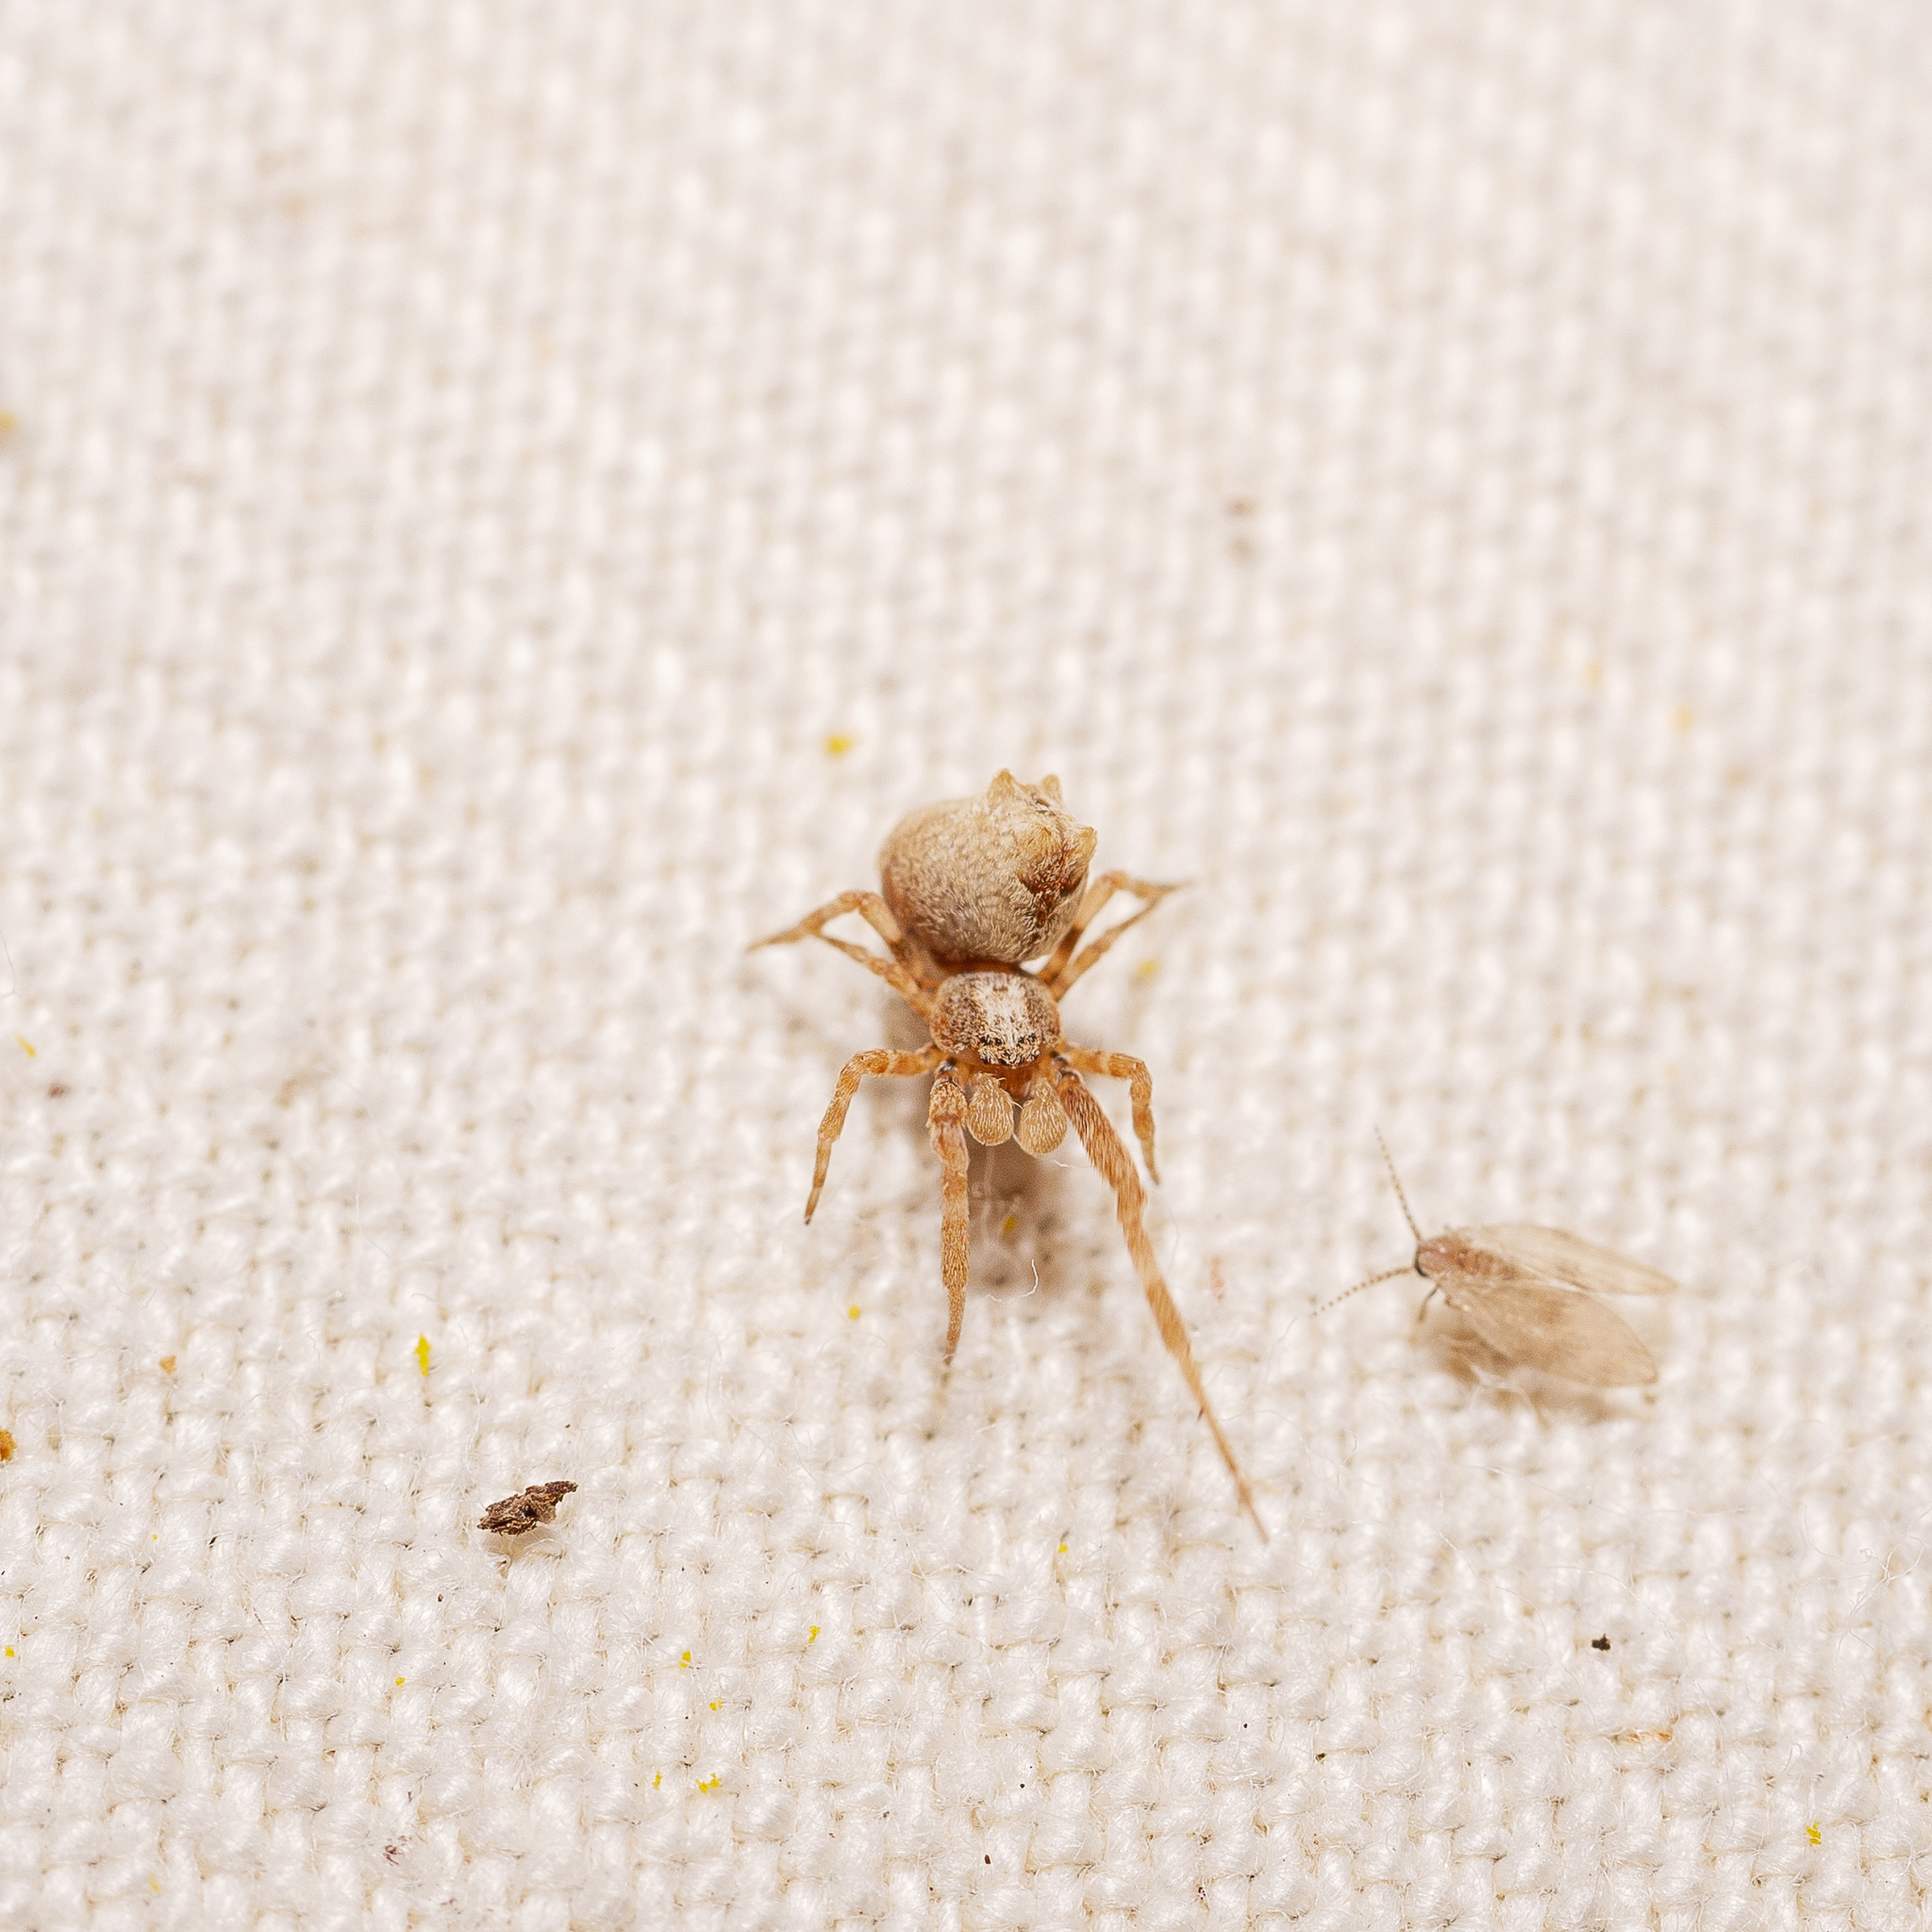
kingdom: Animalia
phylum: Arthropoda
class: Arachnida
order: Araneae
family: Uloboridae
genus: Philoponella
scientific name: Philoponella congregabilis
